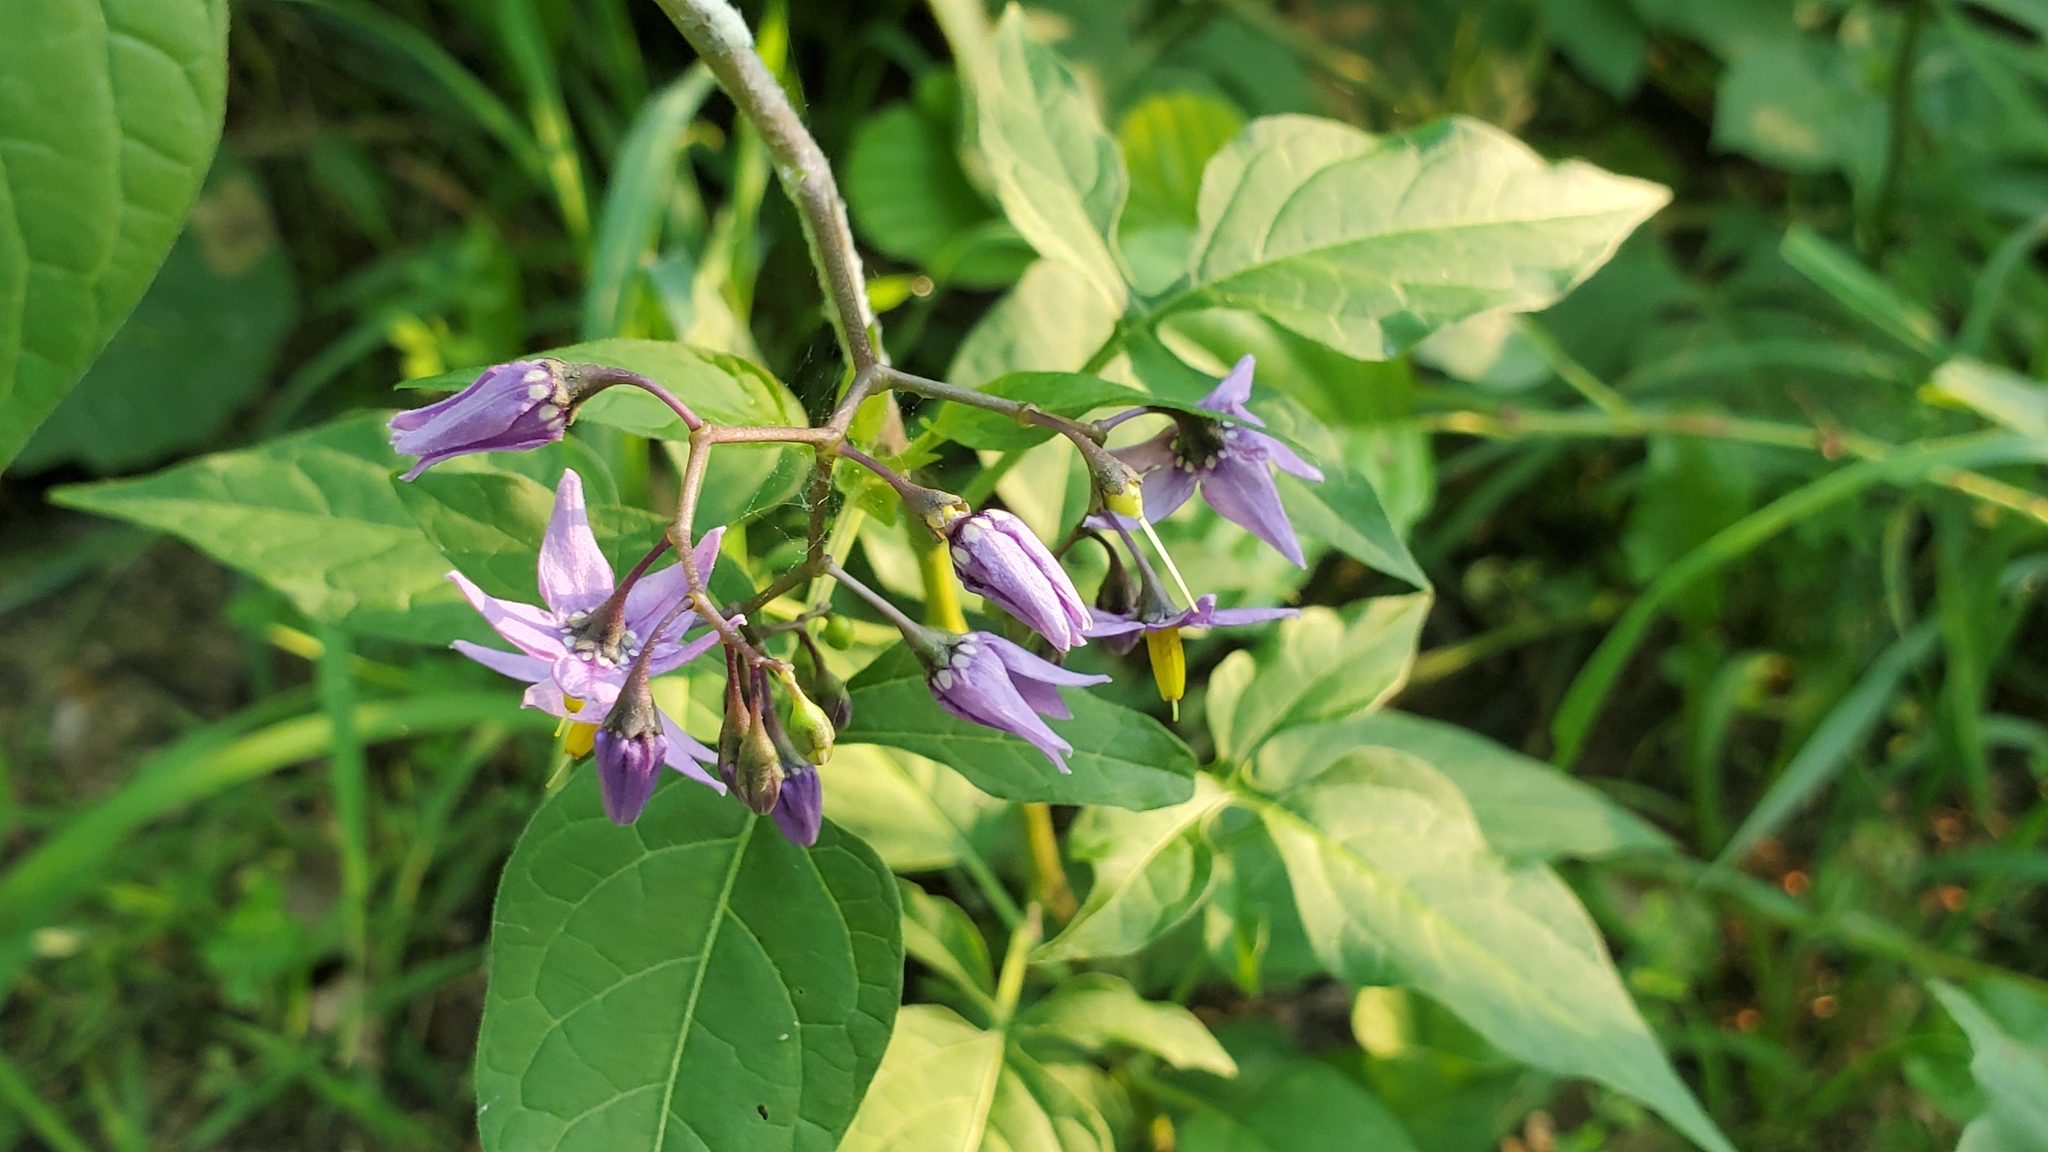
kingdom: Plantae
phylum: Tracheophyta
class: Magnoliopsida
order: Solanales
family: Solanaceae
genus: Solanum
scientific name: Solanum dulcamara
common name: Climbing nightshade
